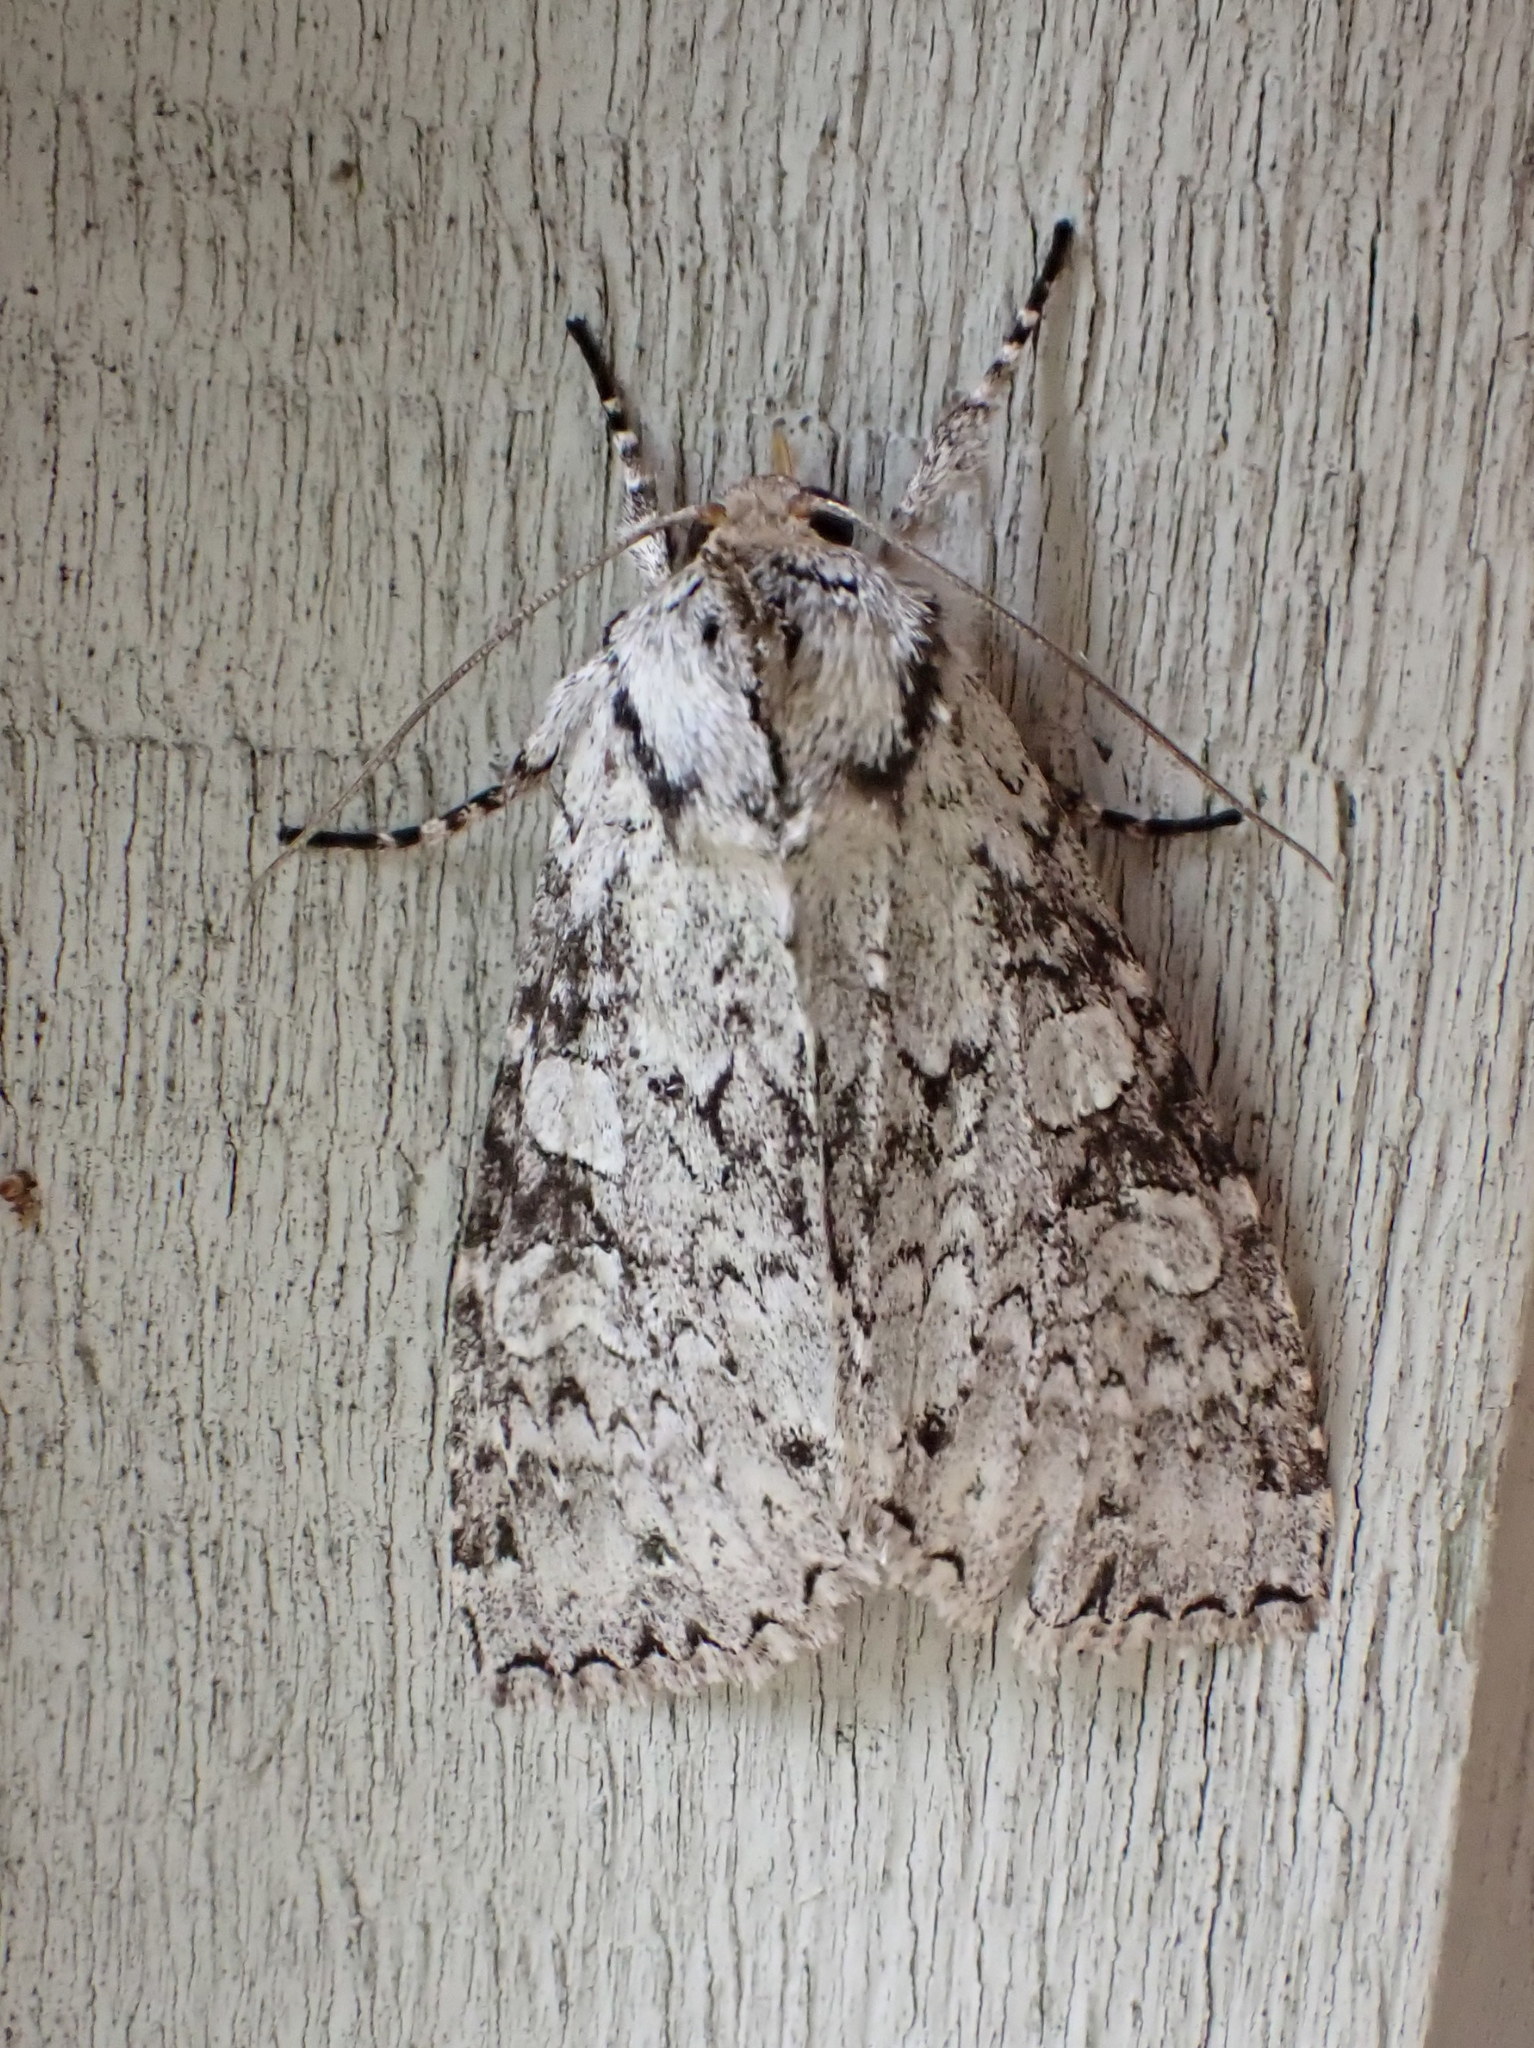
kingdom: Animalia
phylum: Arthropoda
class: Insecta
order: Lepidoptera
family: Noctuidae
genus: Polia
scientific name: Polia nimbosa
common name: Stormy arches
